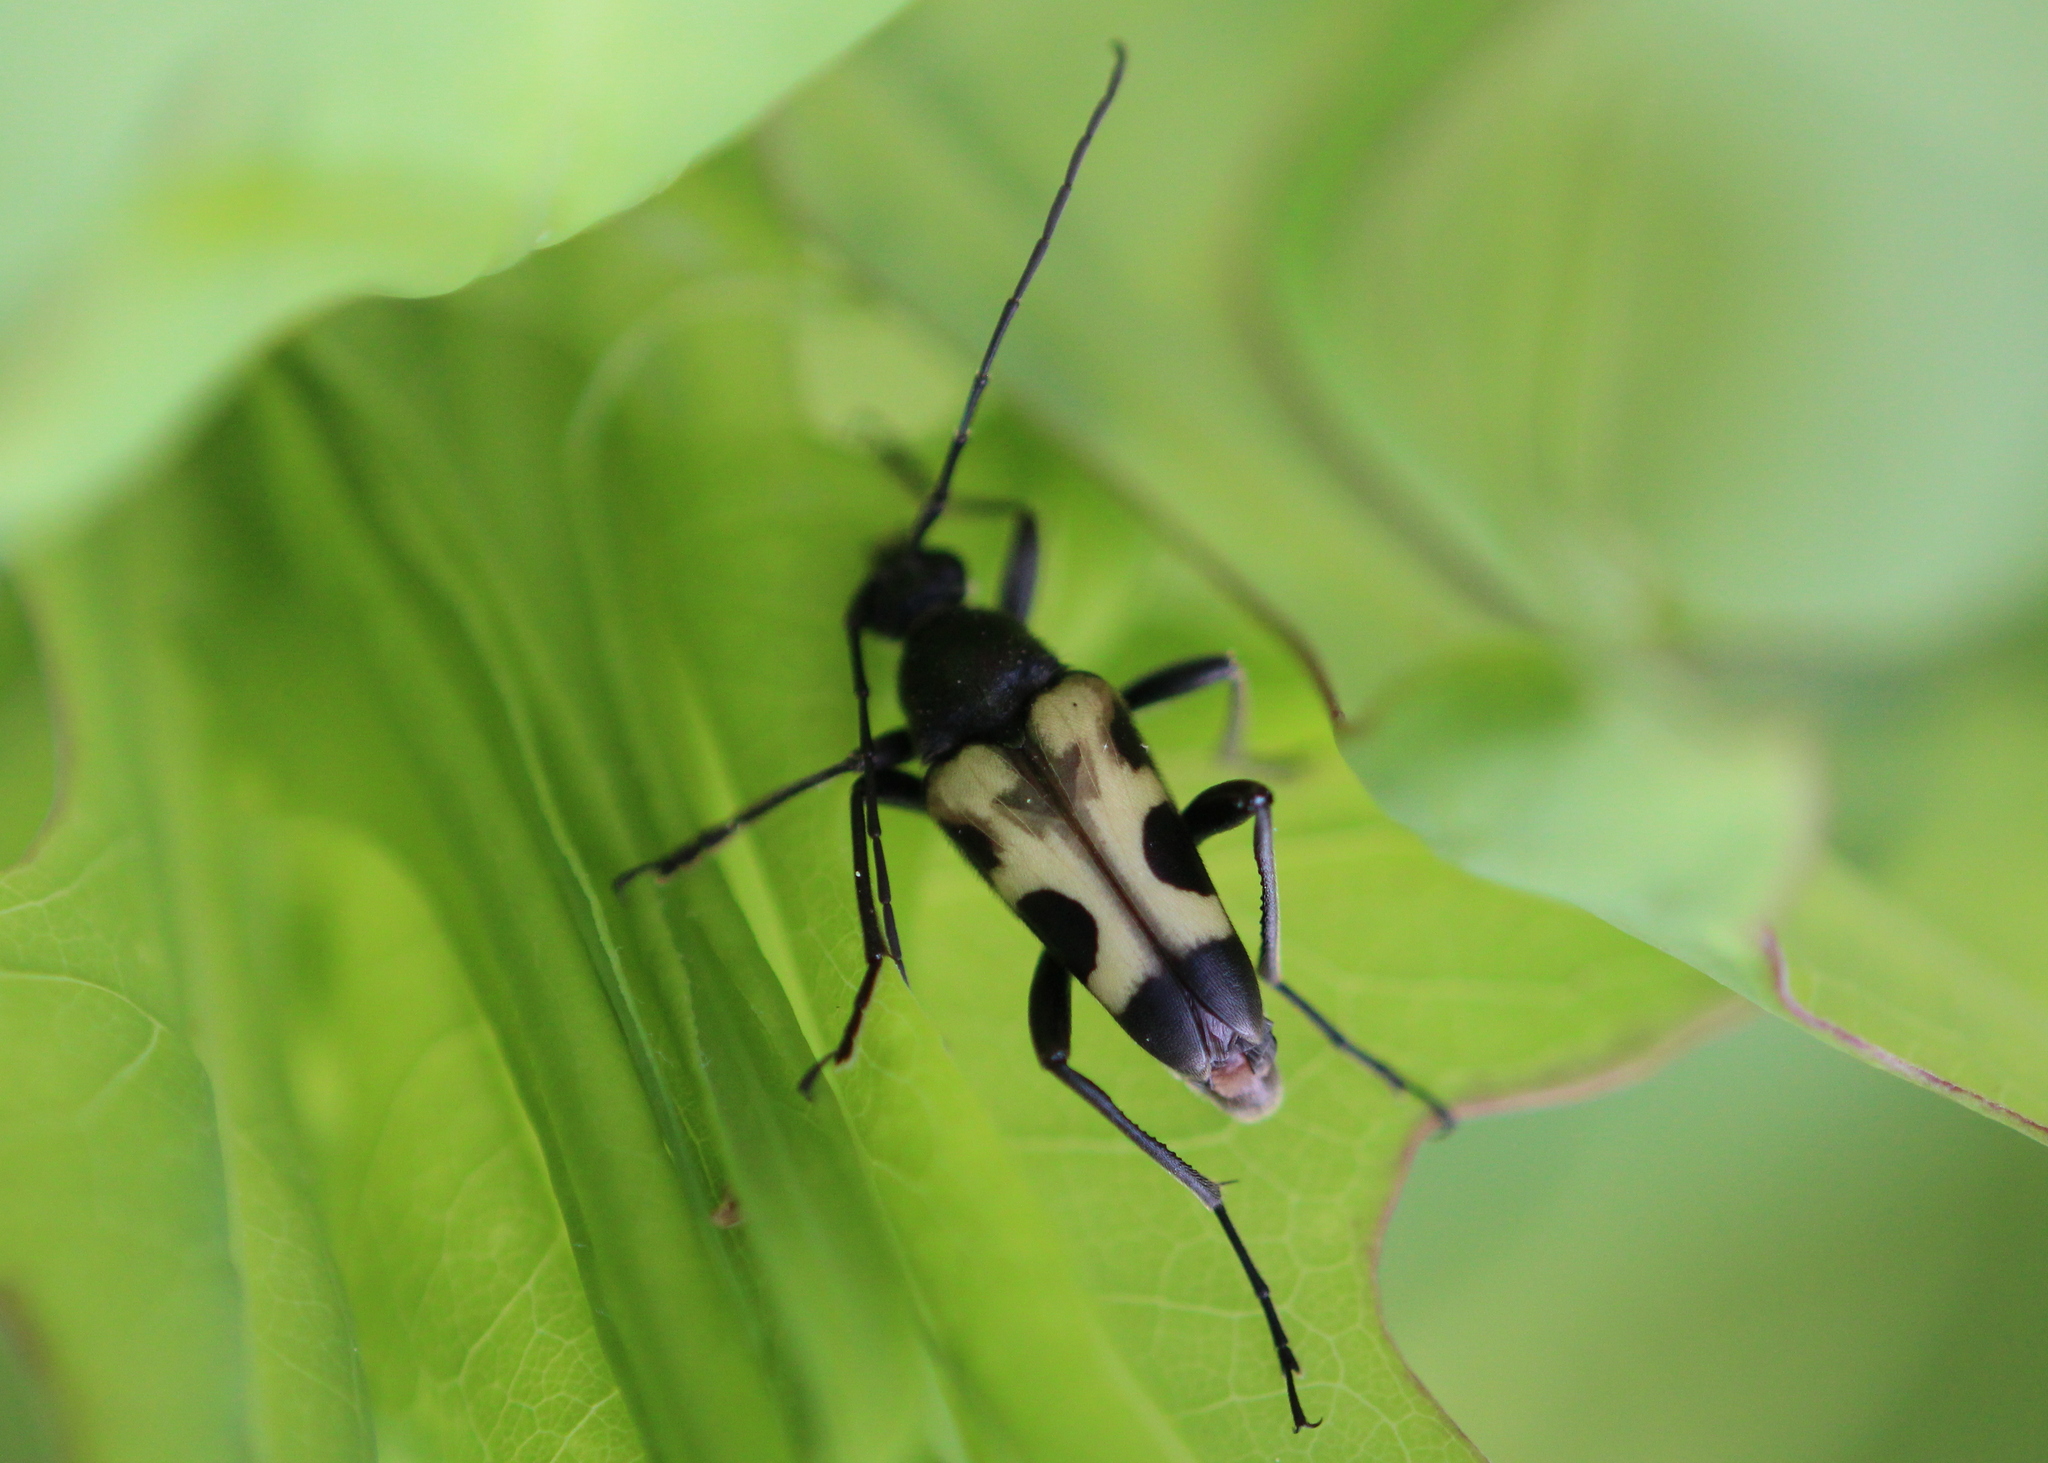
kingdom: Animalia
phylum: Arthropoda
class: Insecta
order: Coleoptera
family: Cerambycidae
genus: Judolia
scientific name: Judolia cordifera
